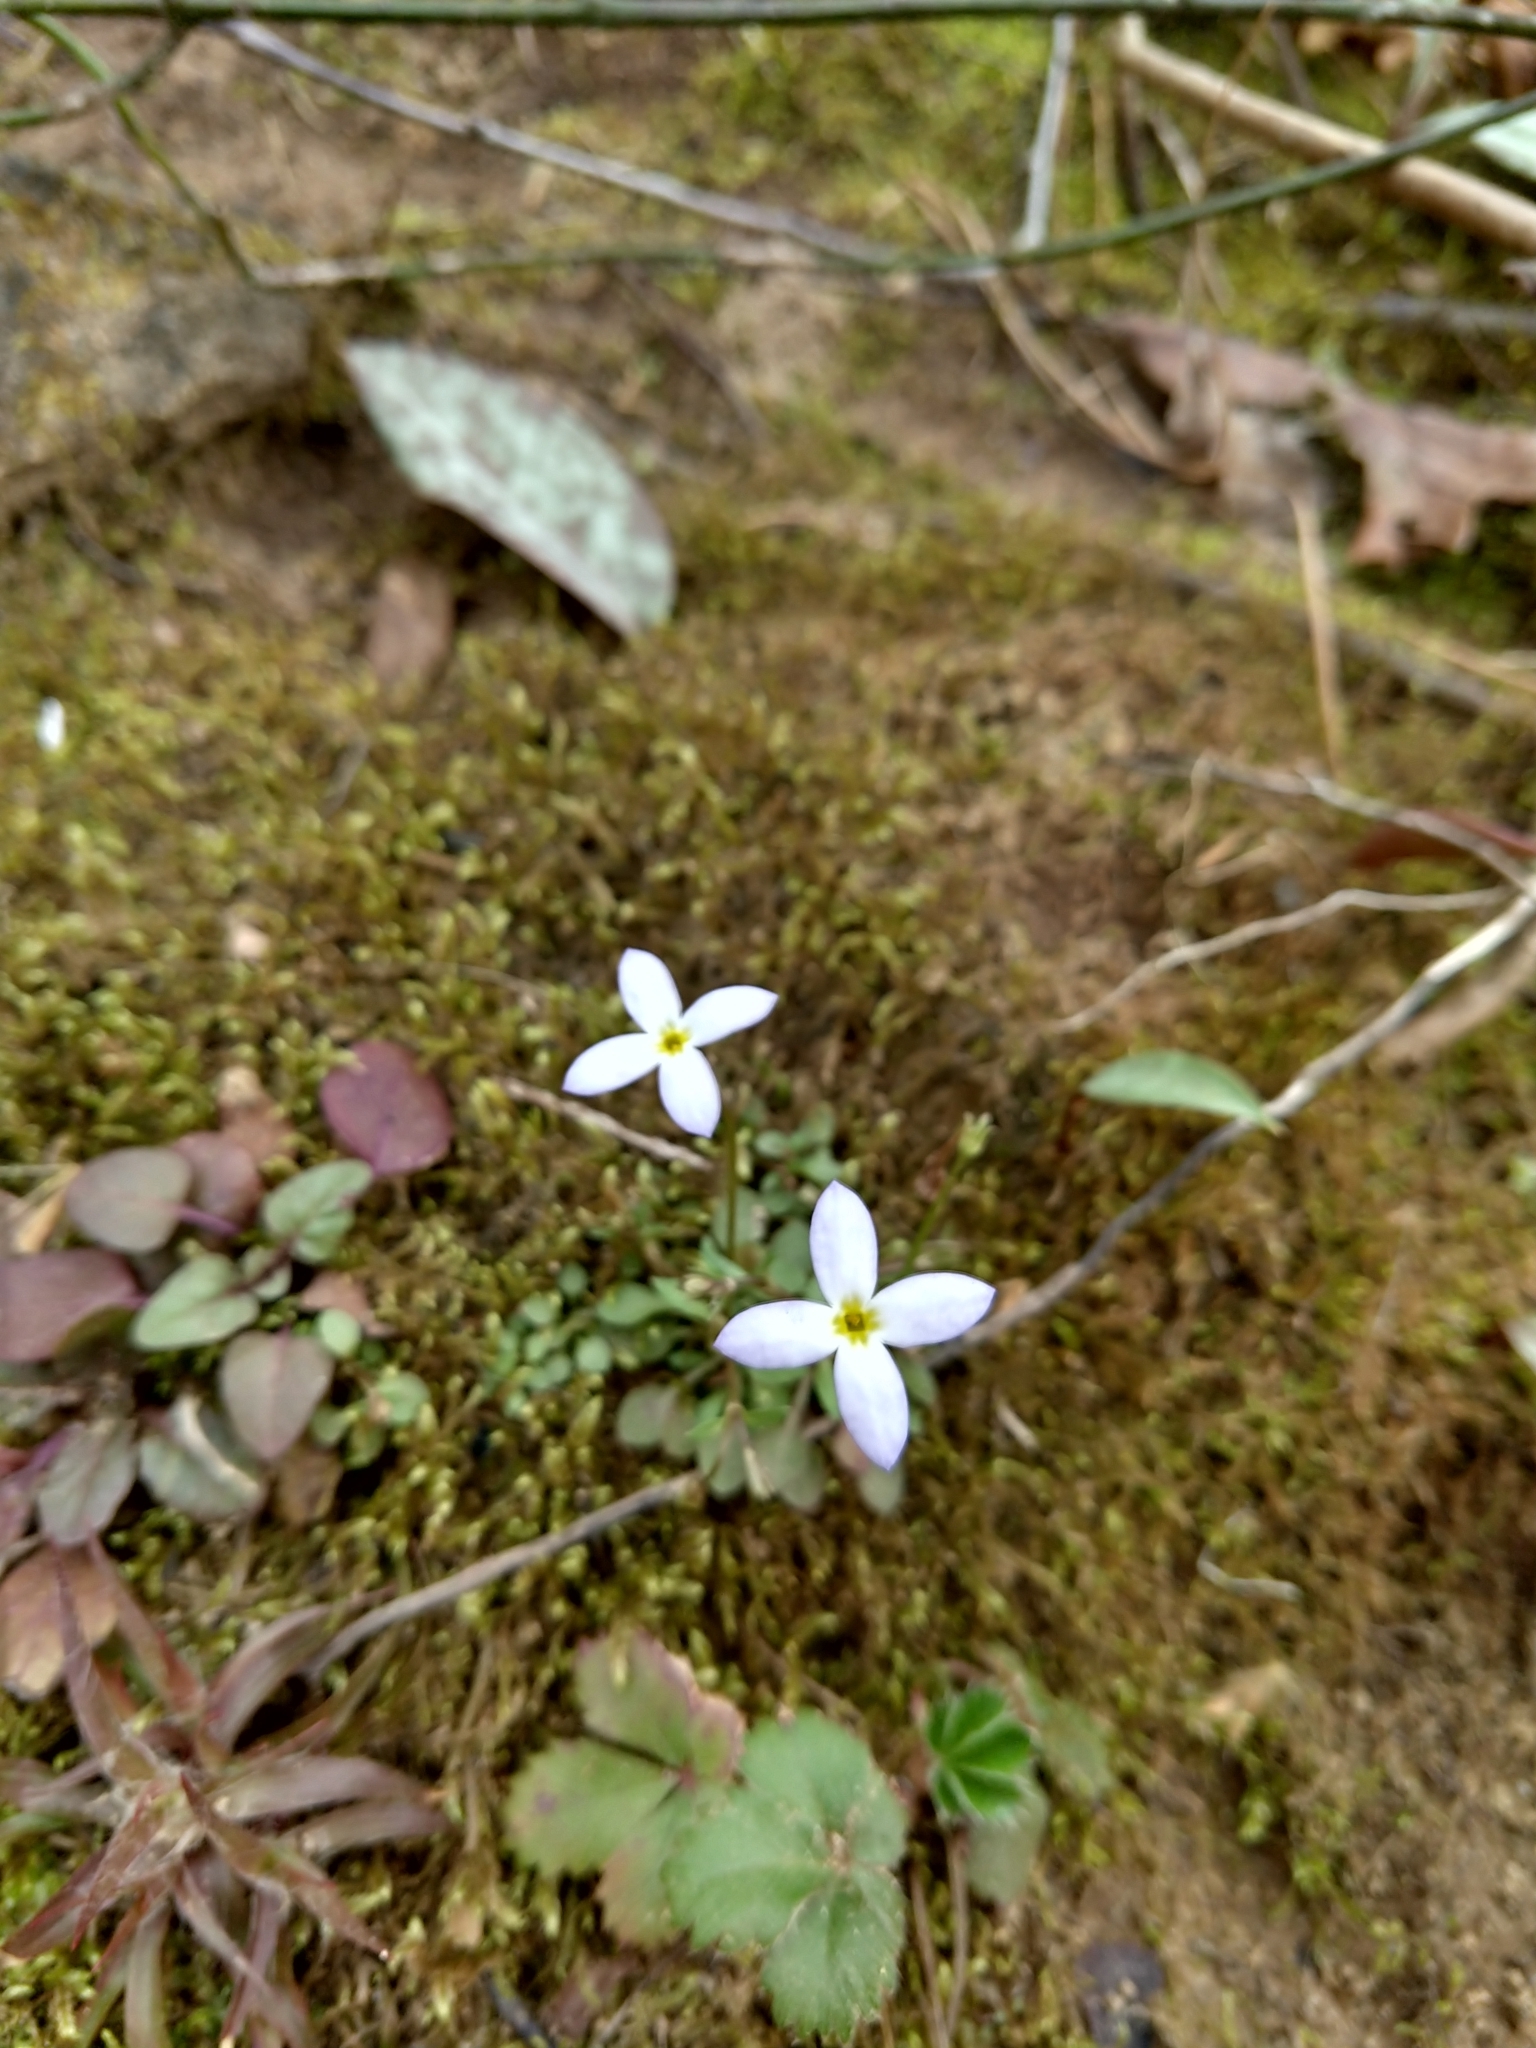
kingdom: Plantae
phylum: Tracheophyta
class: Magnoliopsida
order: Gentianales
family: Rubiaceae
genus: Houstonia
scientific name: Houstonia caerulea
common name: Bluets
